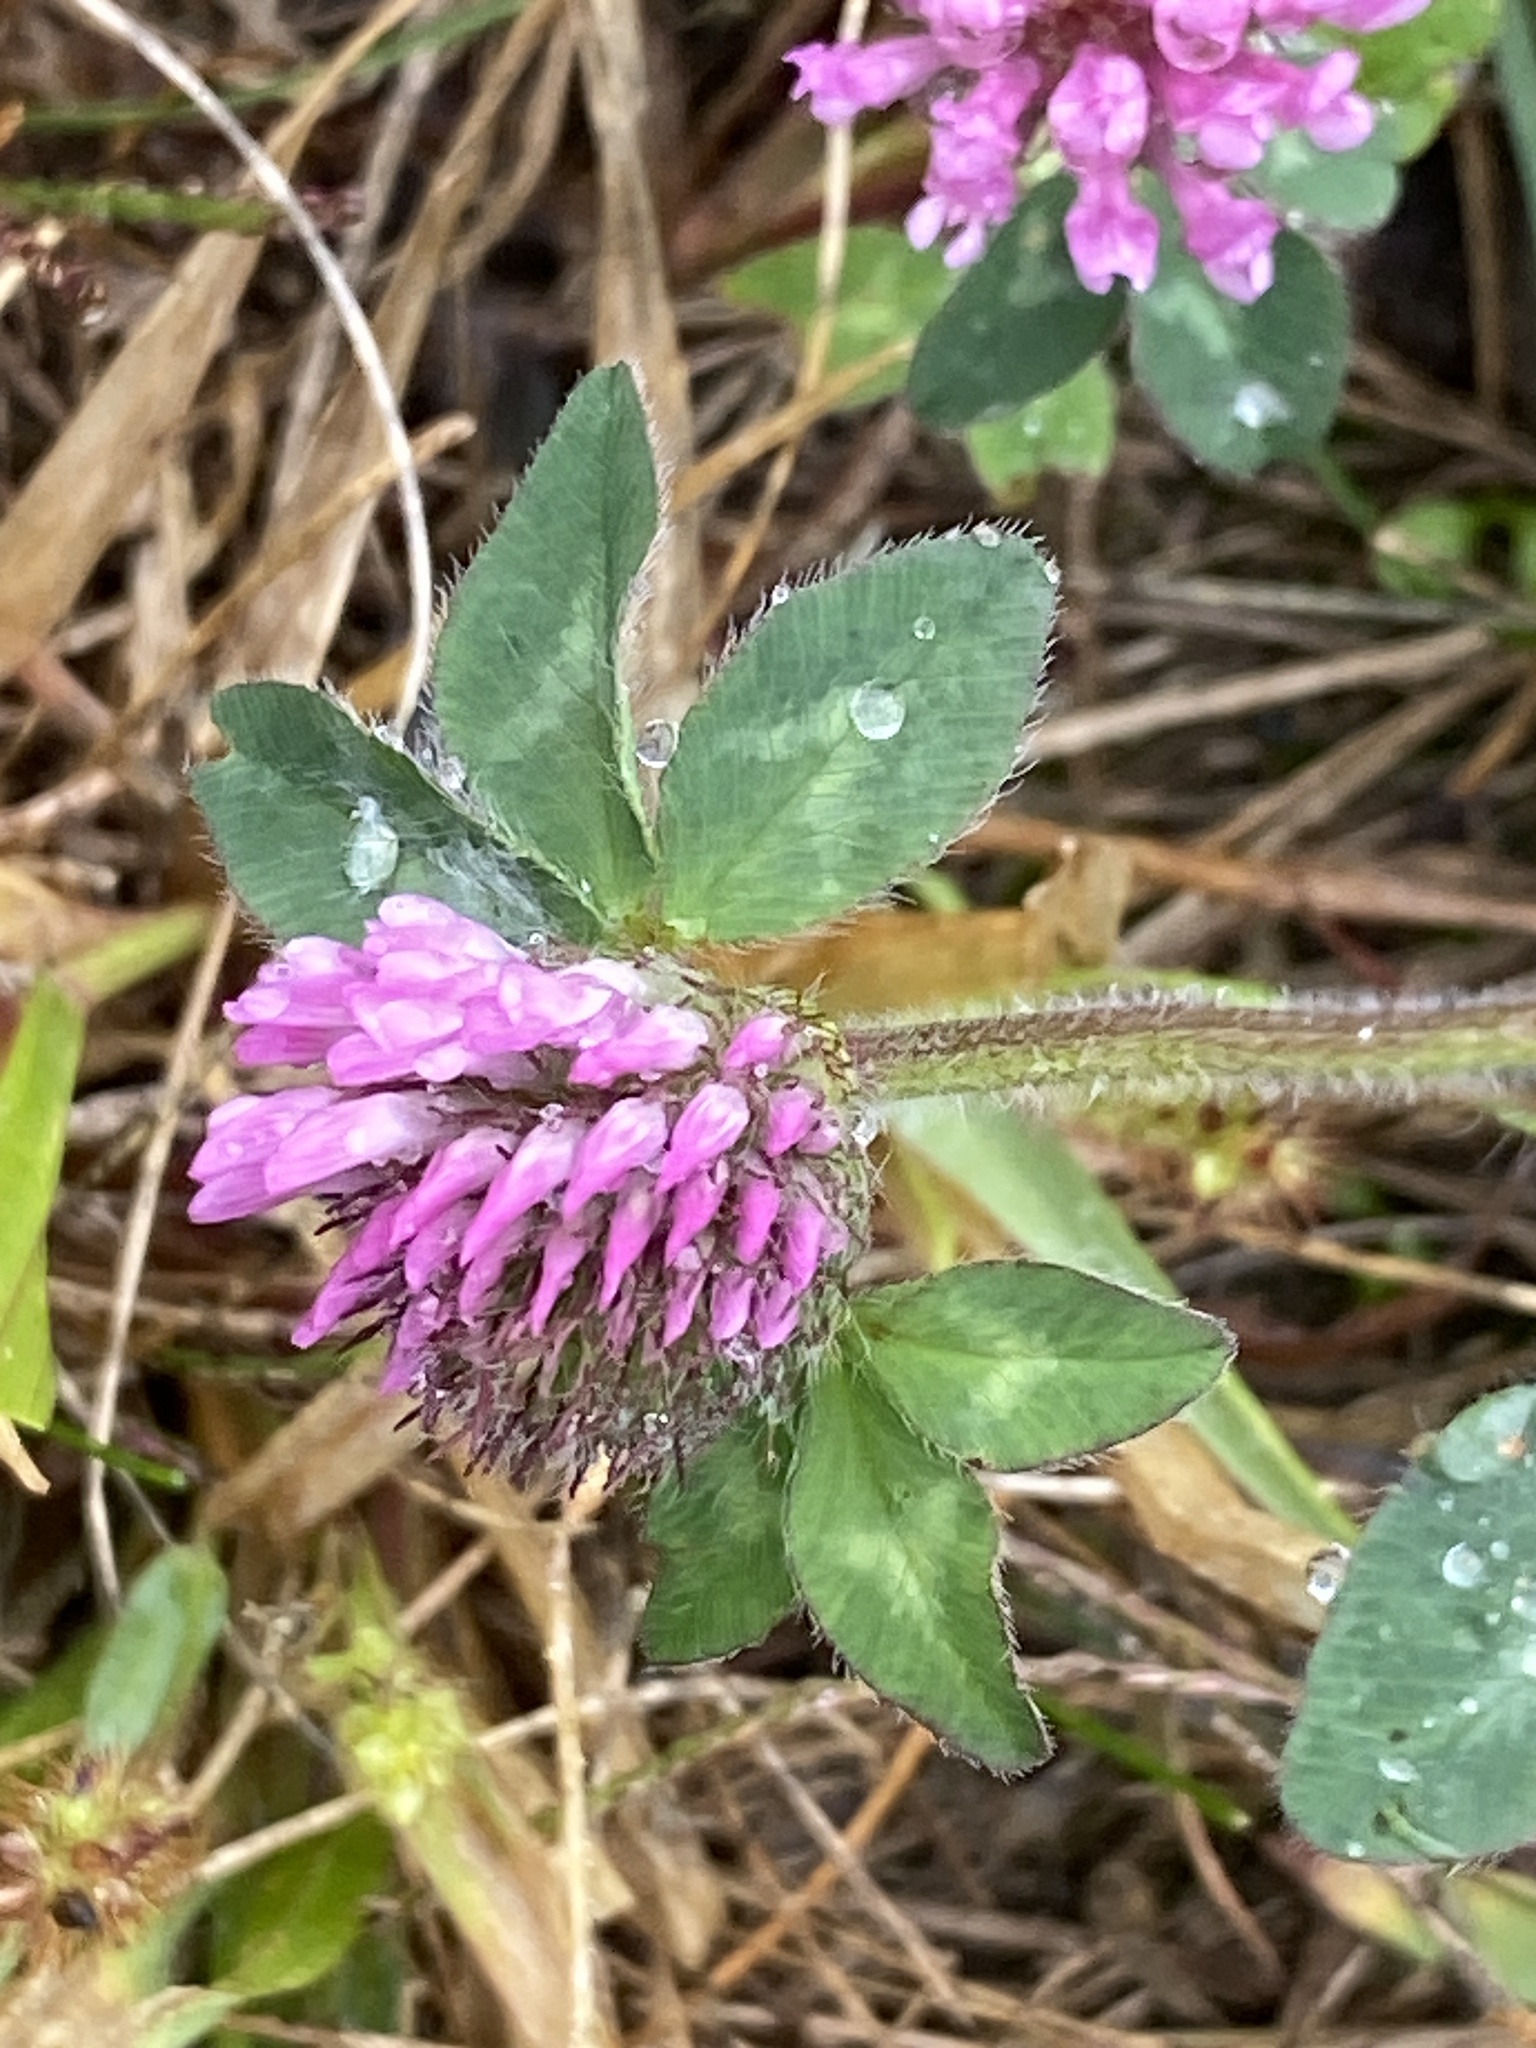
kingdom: Plantae
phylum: Tracheophyta
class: Magnoliopsida
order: Fabales
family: Fabaceae
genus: Trifolium
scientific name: Trifolium pratense
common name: Red clover
